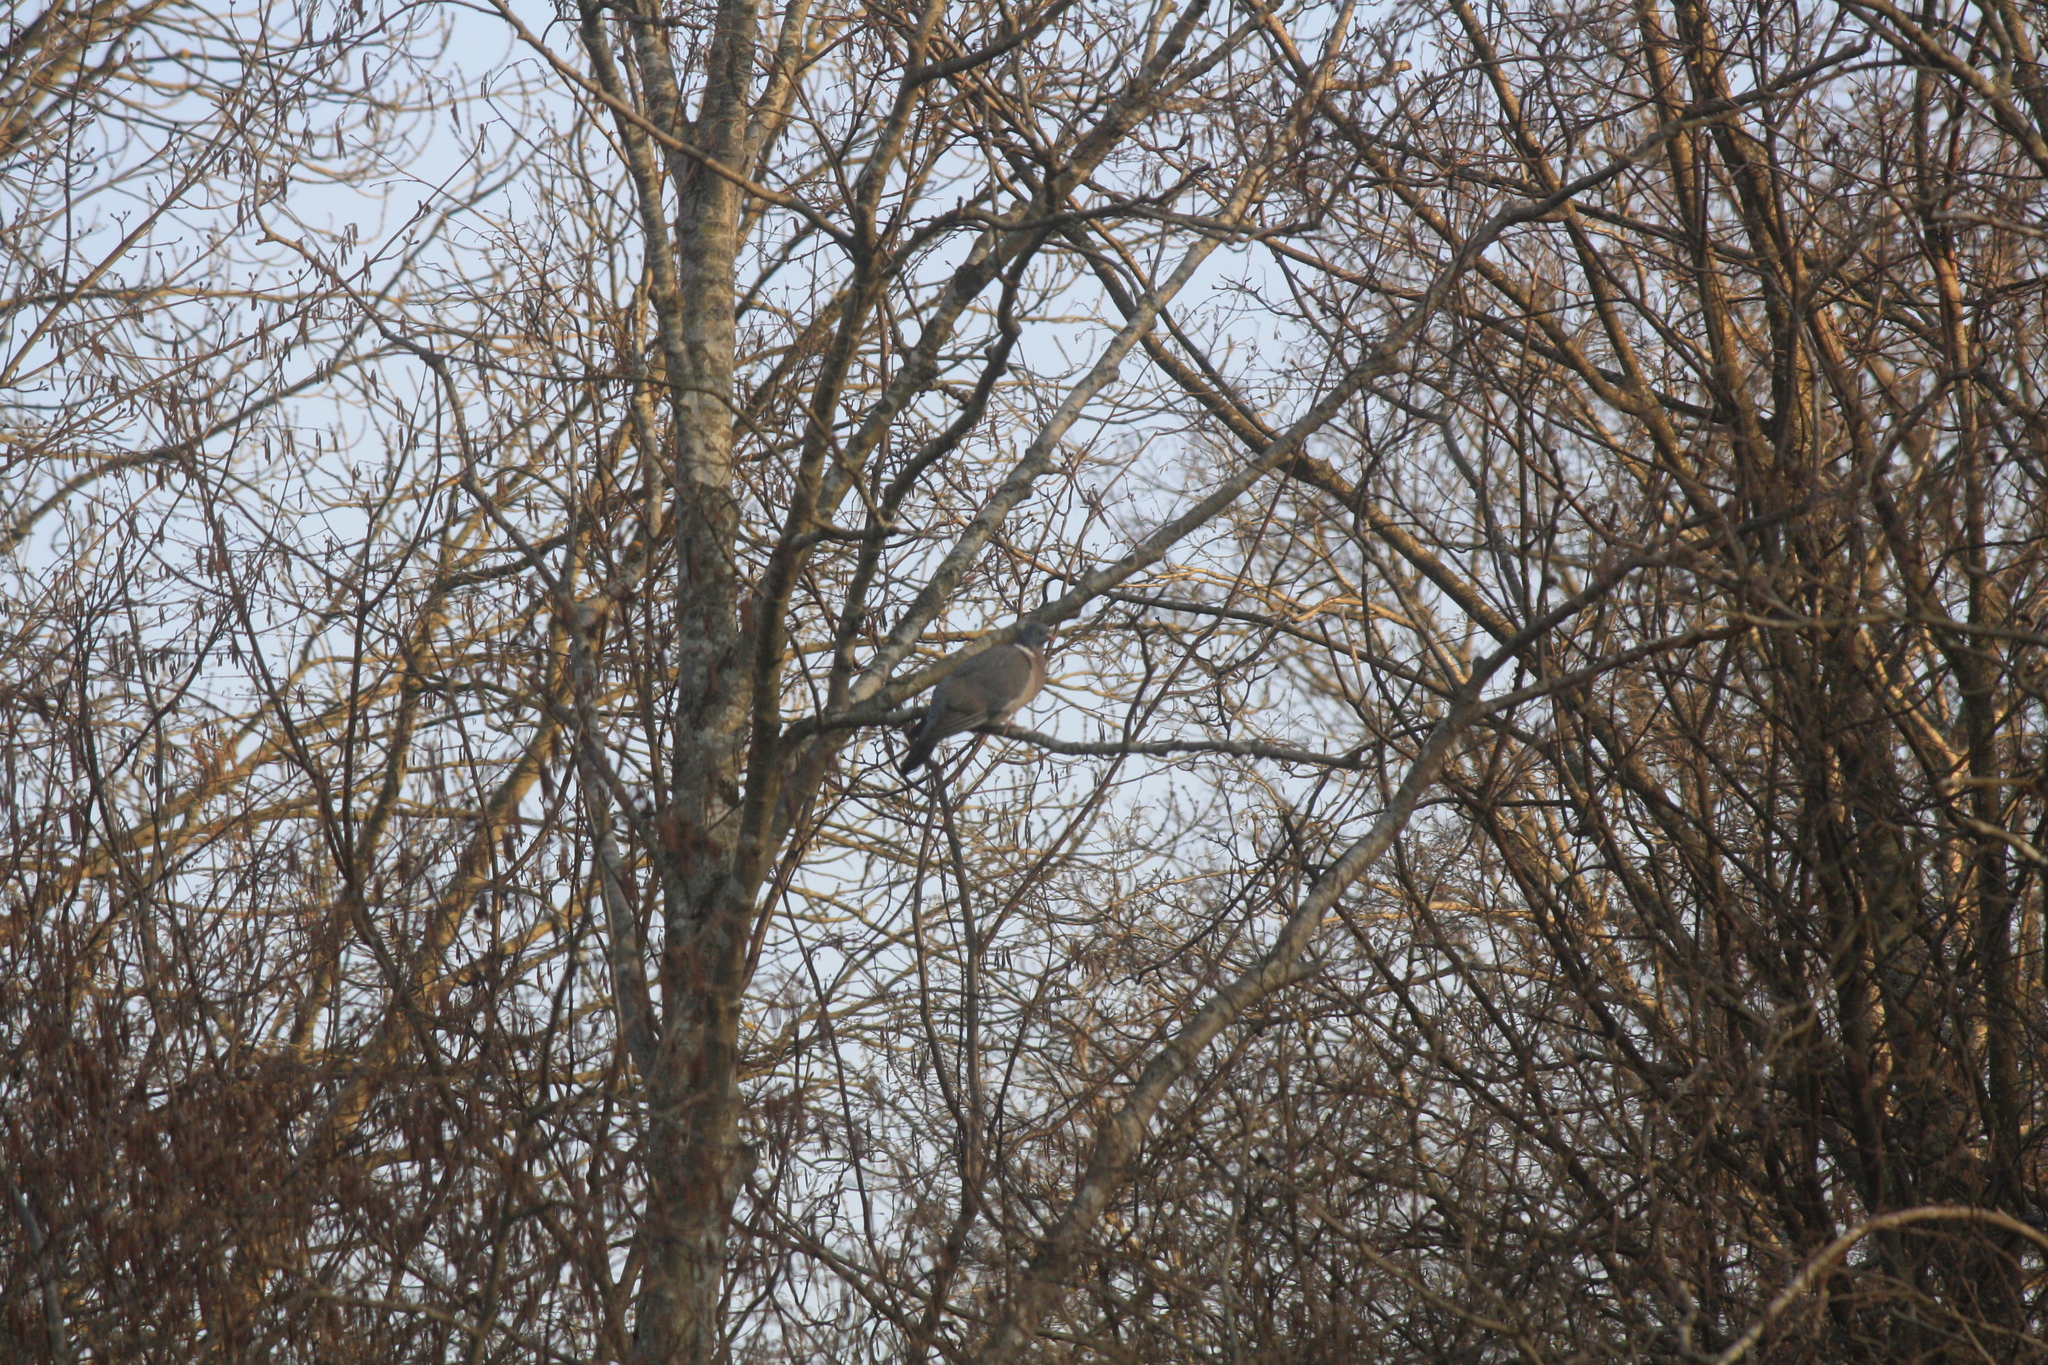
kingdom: Animalia
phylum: Chordata
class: Aves
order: Columbiformes
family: Columbidae
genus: Columba
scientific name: Columba palumbus
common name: Common wood pigeon
